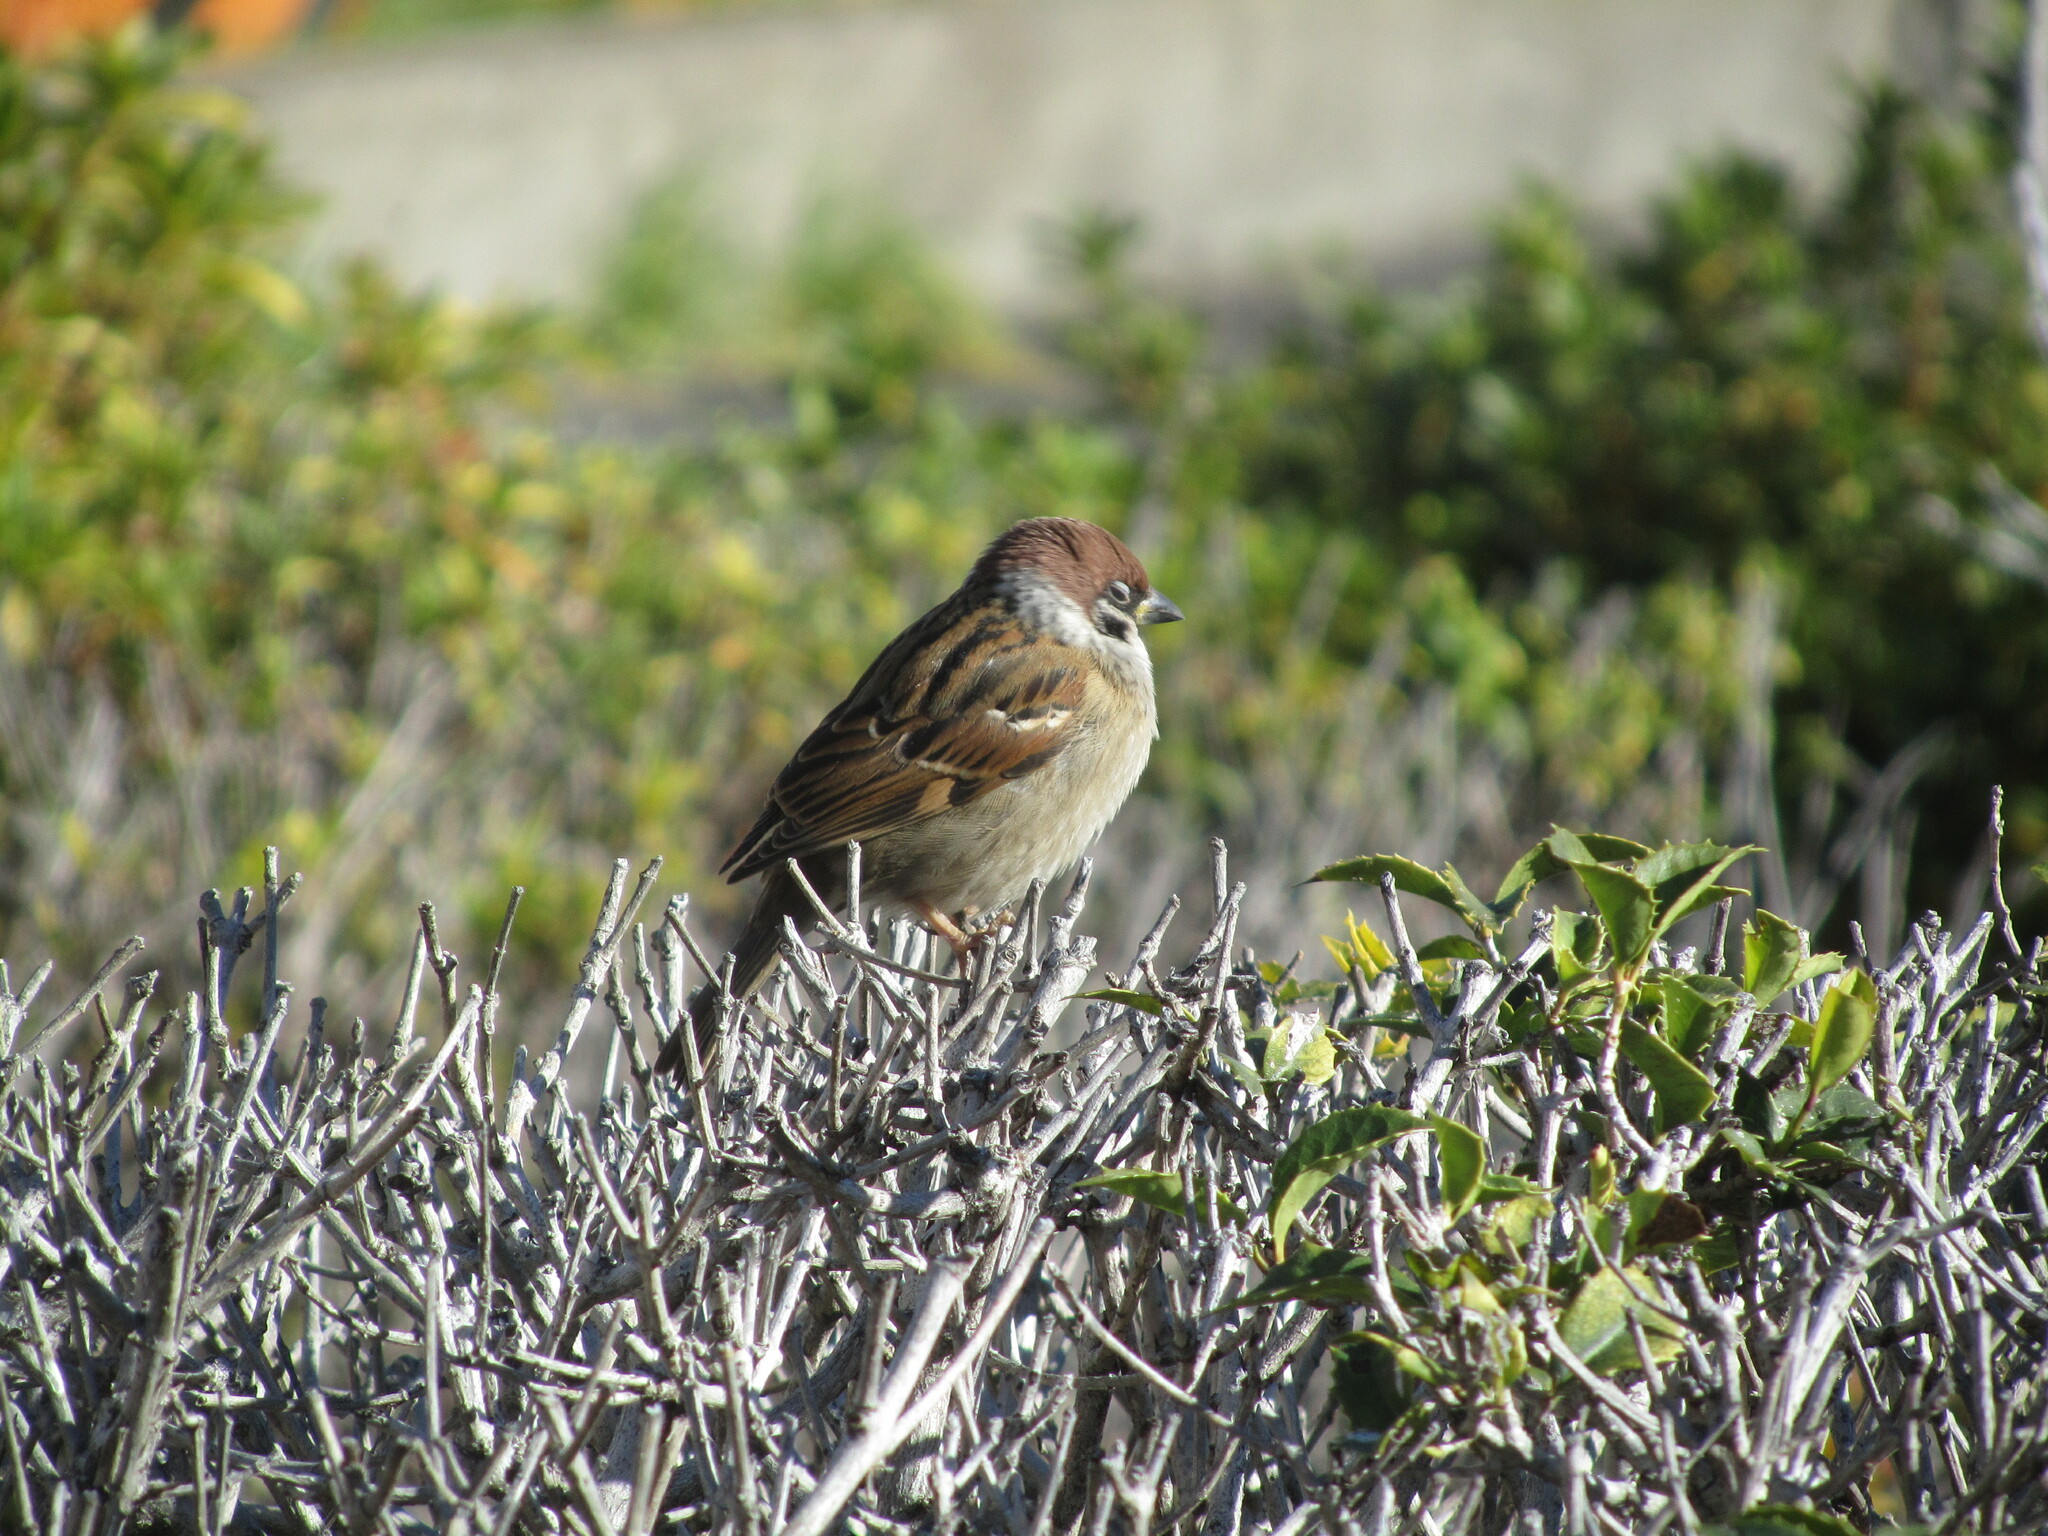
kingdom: Animalia
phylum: Chordata
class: Aves
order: Passeriformes
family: Passeridae
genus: Passer
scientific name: Passer montanus
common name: Eurasian tree sparrow
